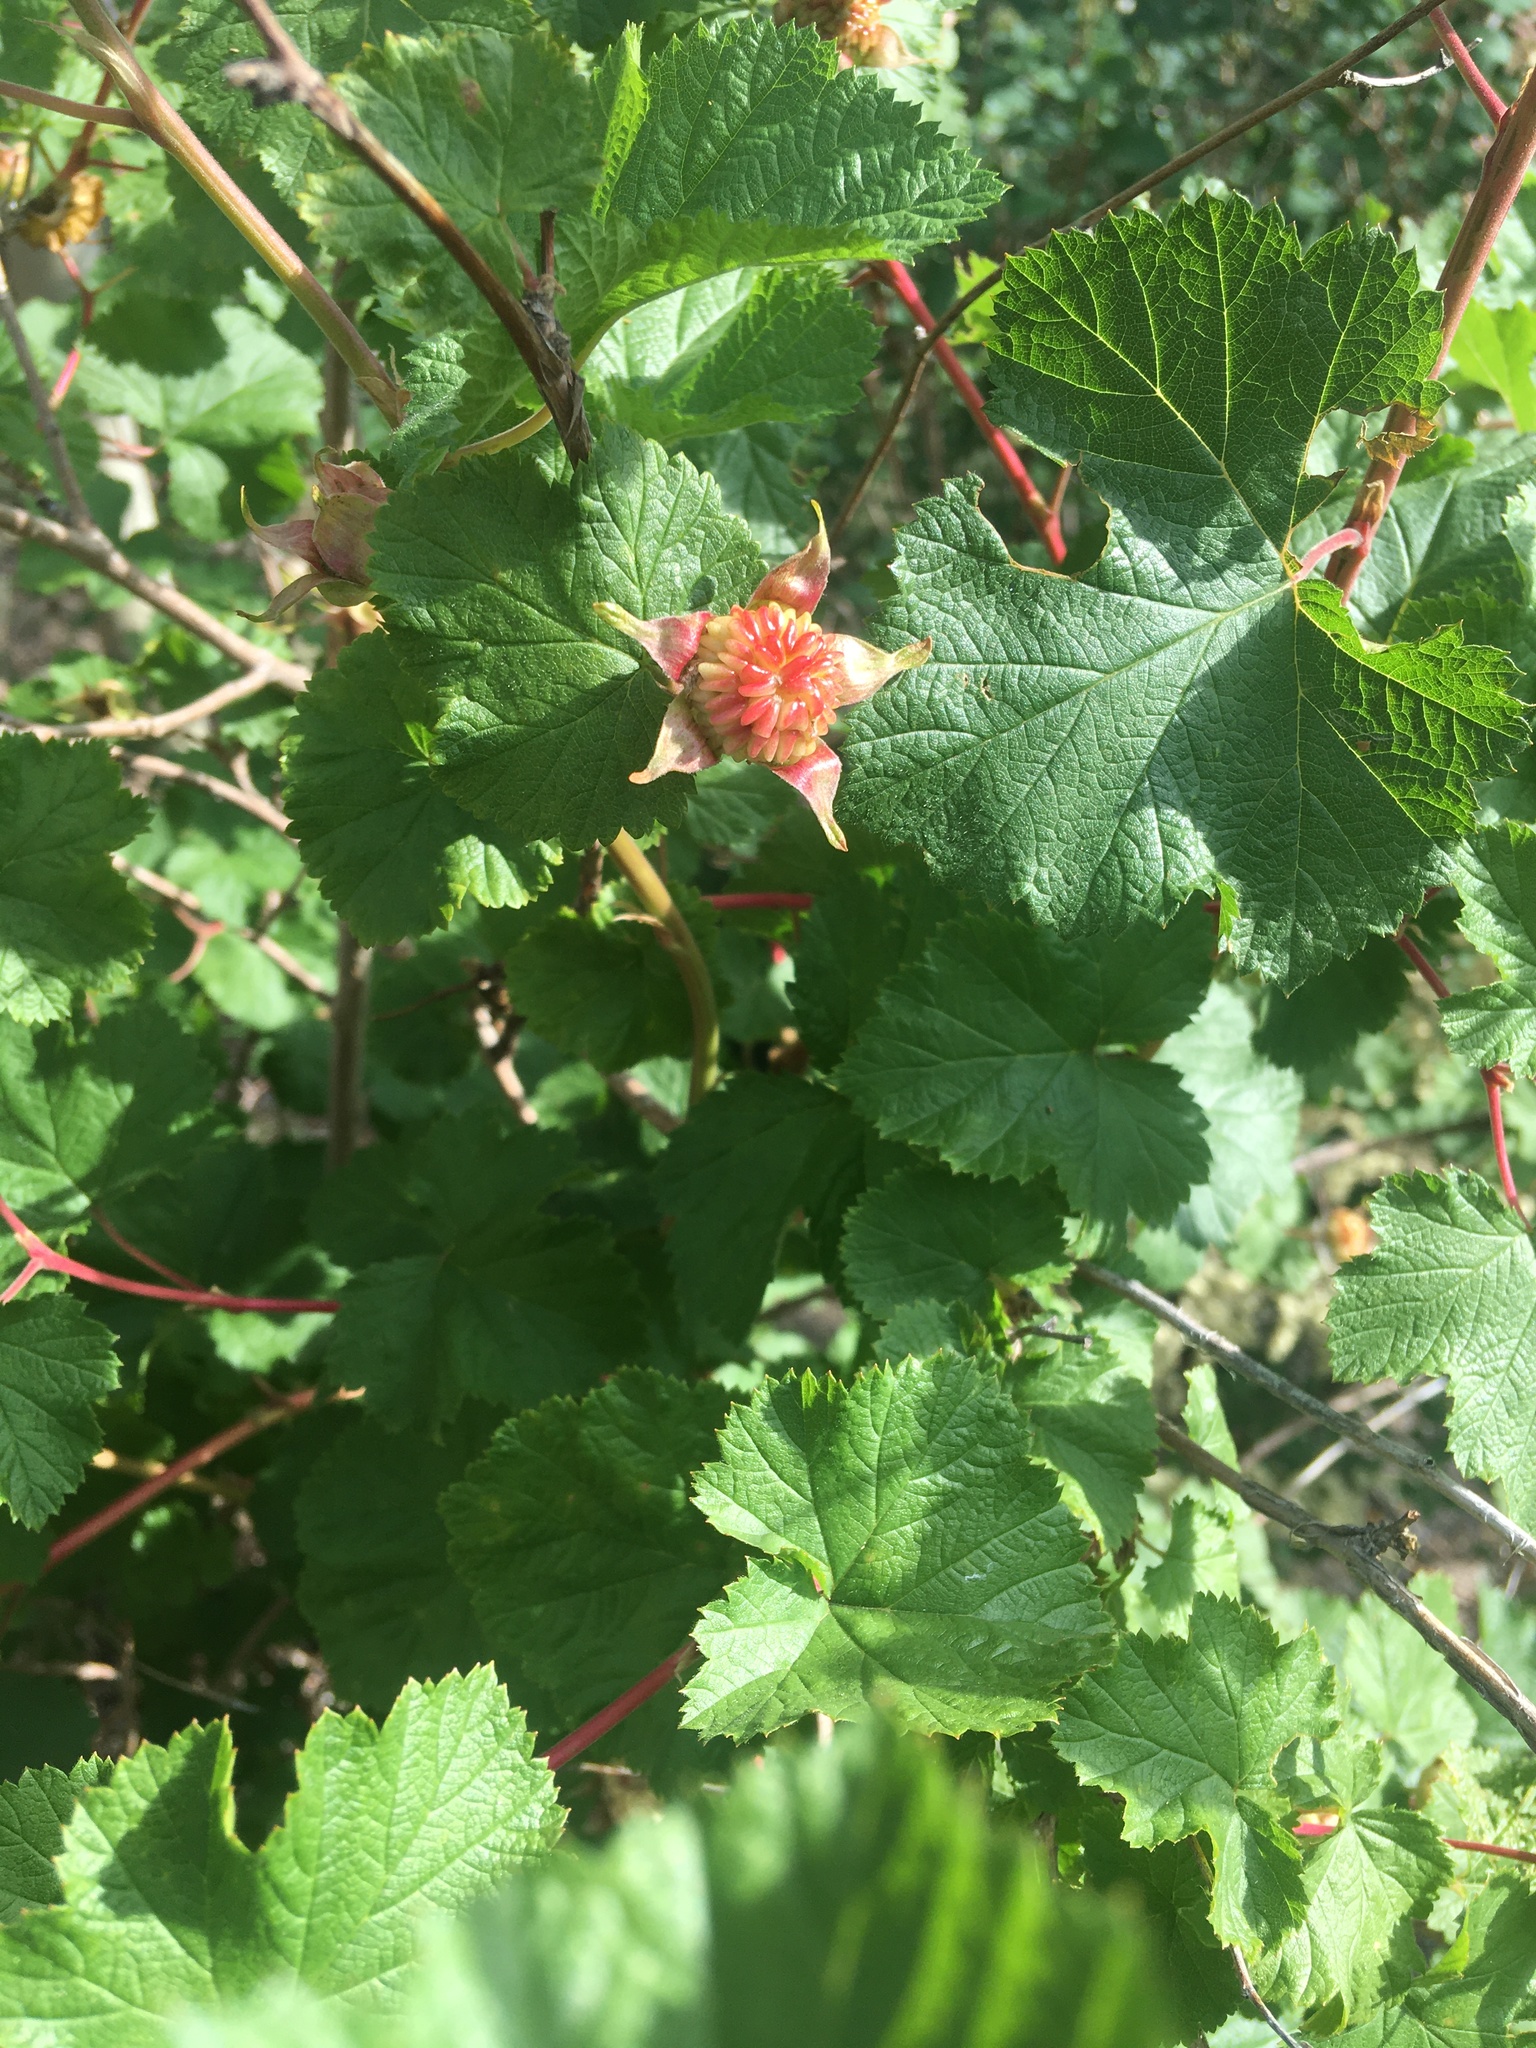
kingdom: Plantae
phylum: Tracheophyta
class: Magnoliopsida
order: Rosales
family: Rosaceae
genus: Rubus
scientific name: Rubus deliciosus
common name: Rocky mountain raspberry
